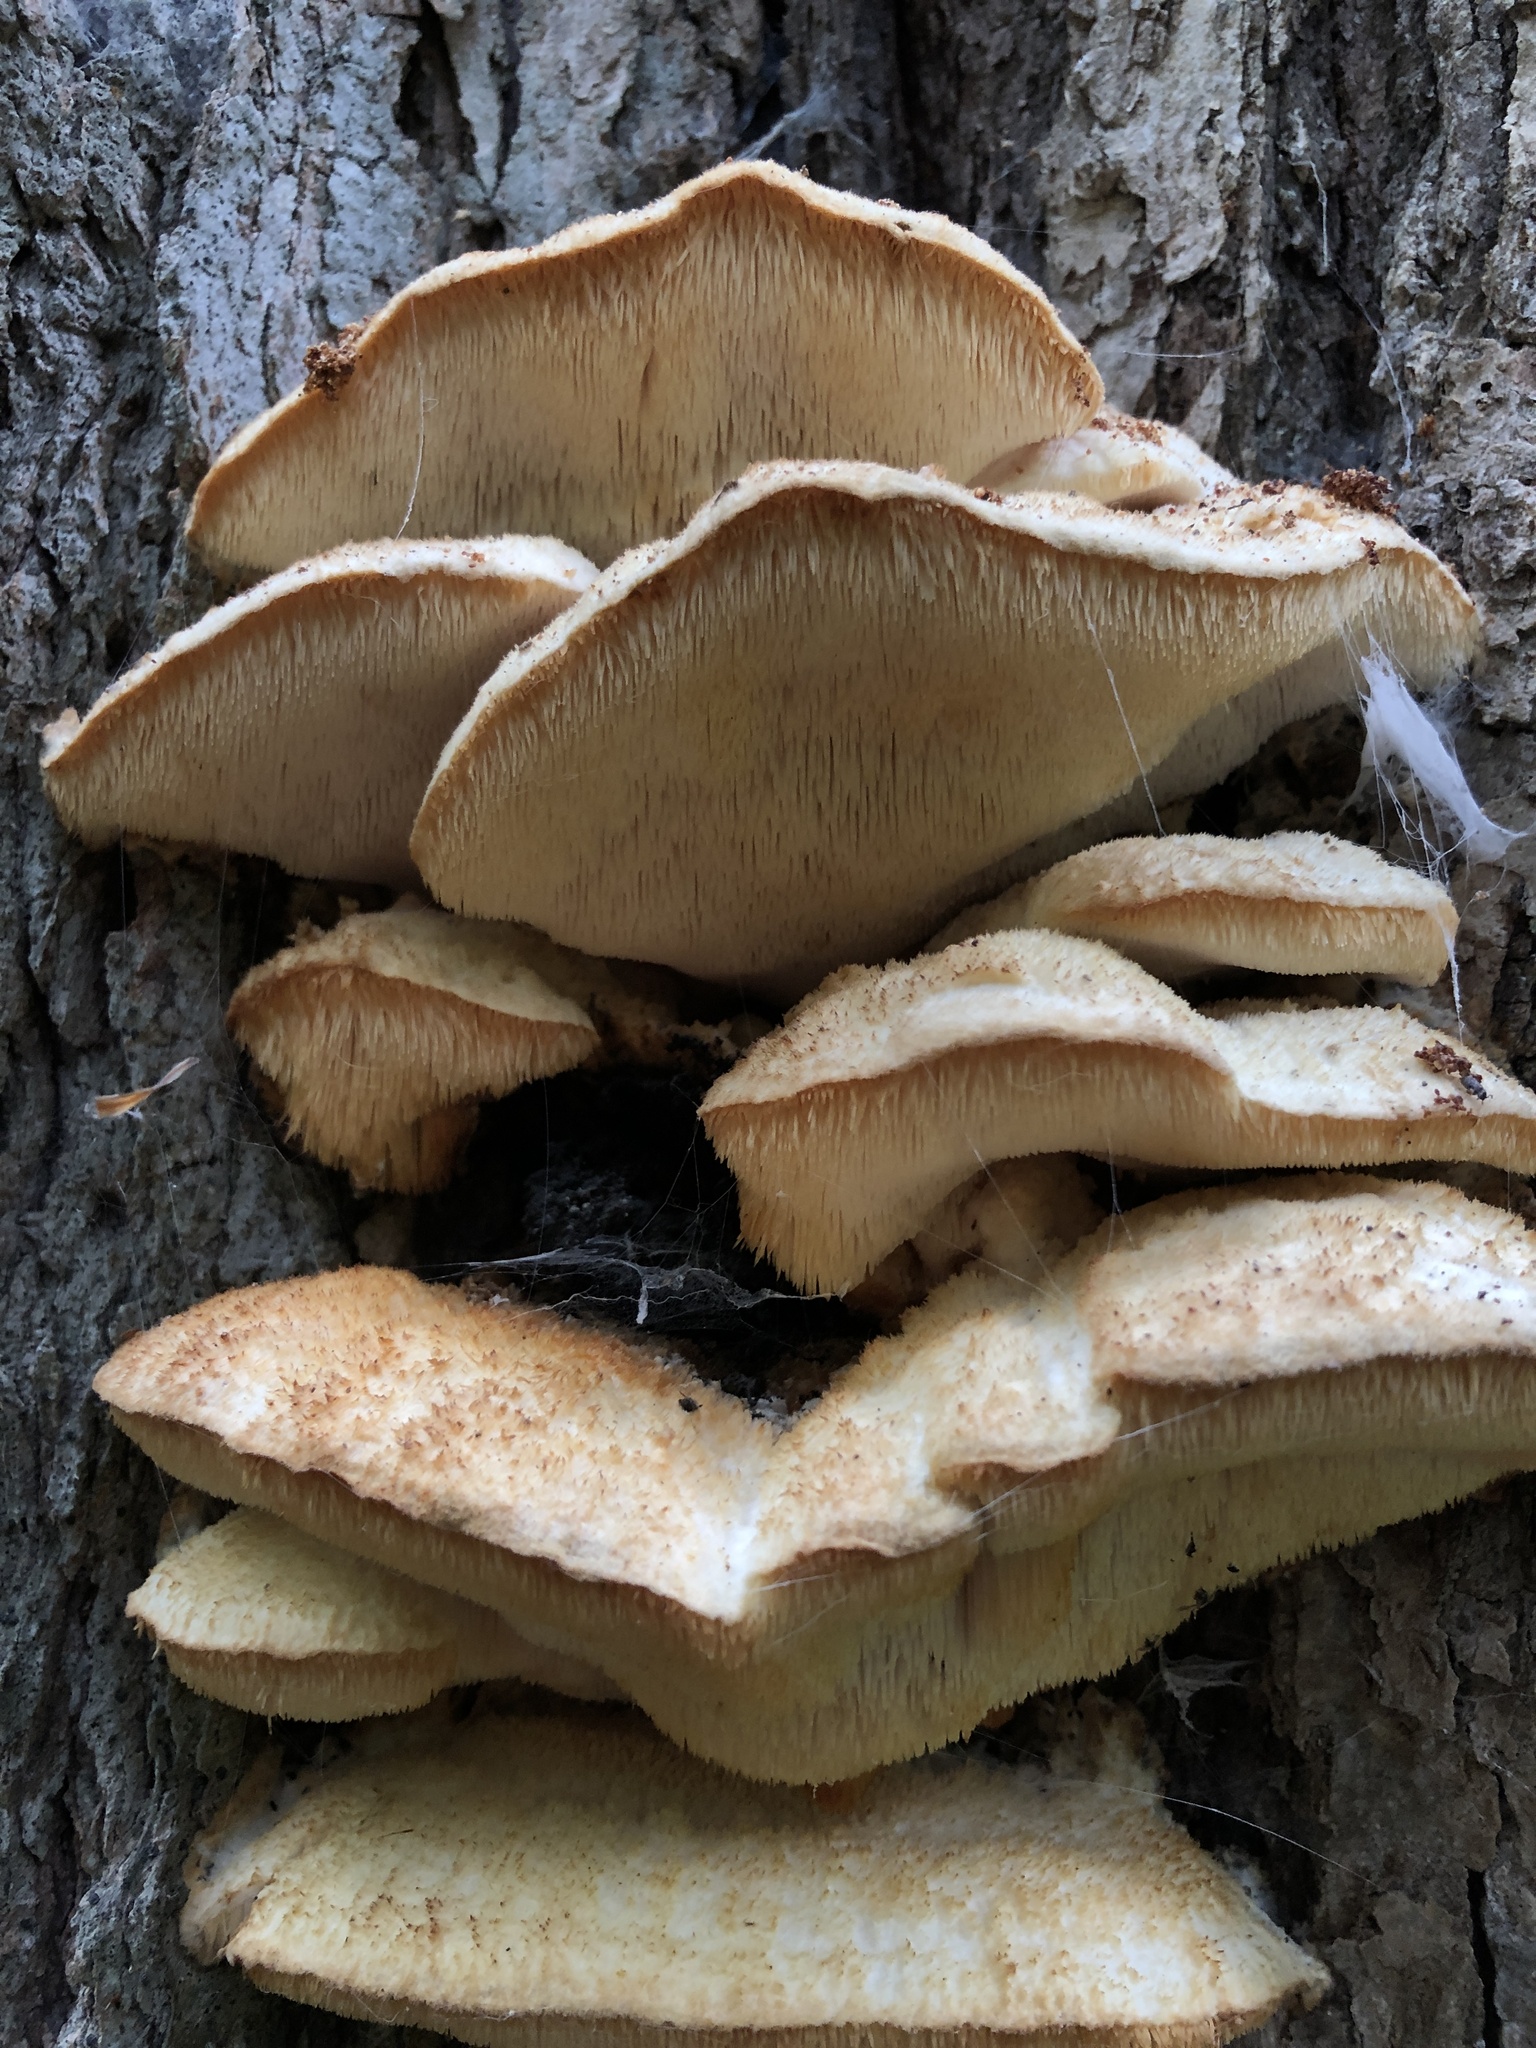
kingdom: Fungi
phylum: Basidiomycota
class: Agaricomycetes
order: Polyporales
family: Meruliaceae
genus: Climacodon
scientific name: Climacodon septentrionalis
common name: Northern tooth
